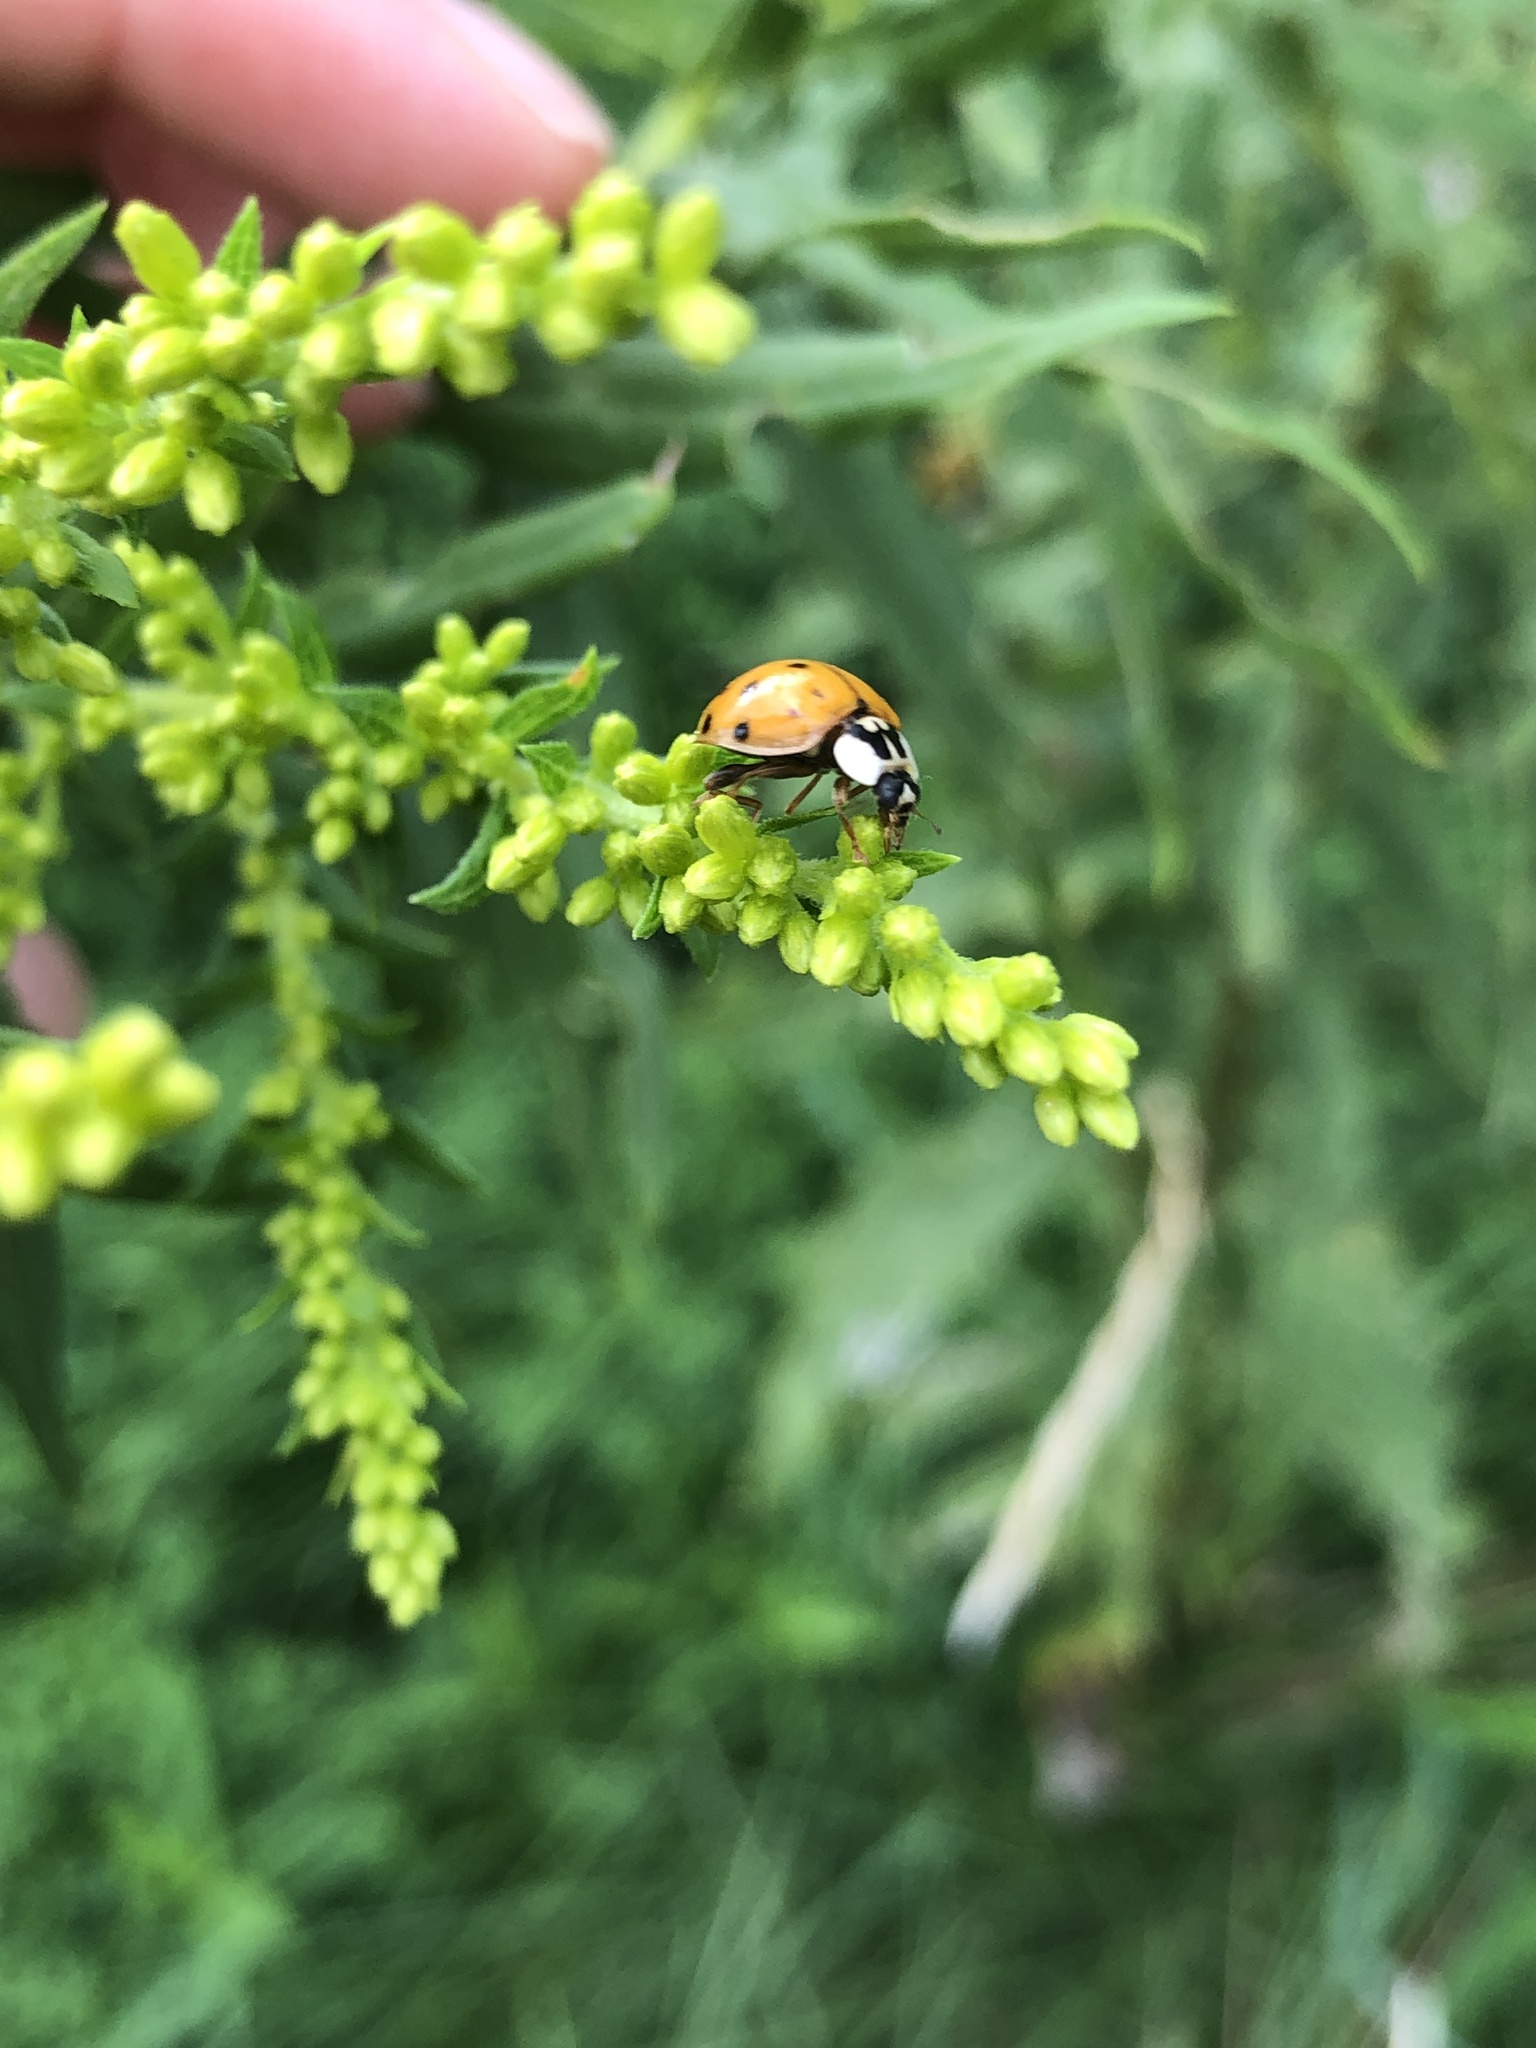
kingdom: Animalia
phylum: Arthropoda
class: Insecta
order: Coleoptera
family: Coccinellidae
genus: Harmonia
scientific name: Harmonia axyridis
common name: Harlequin ladybird
